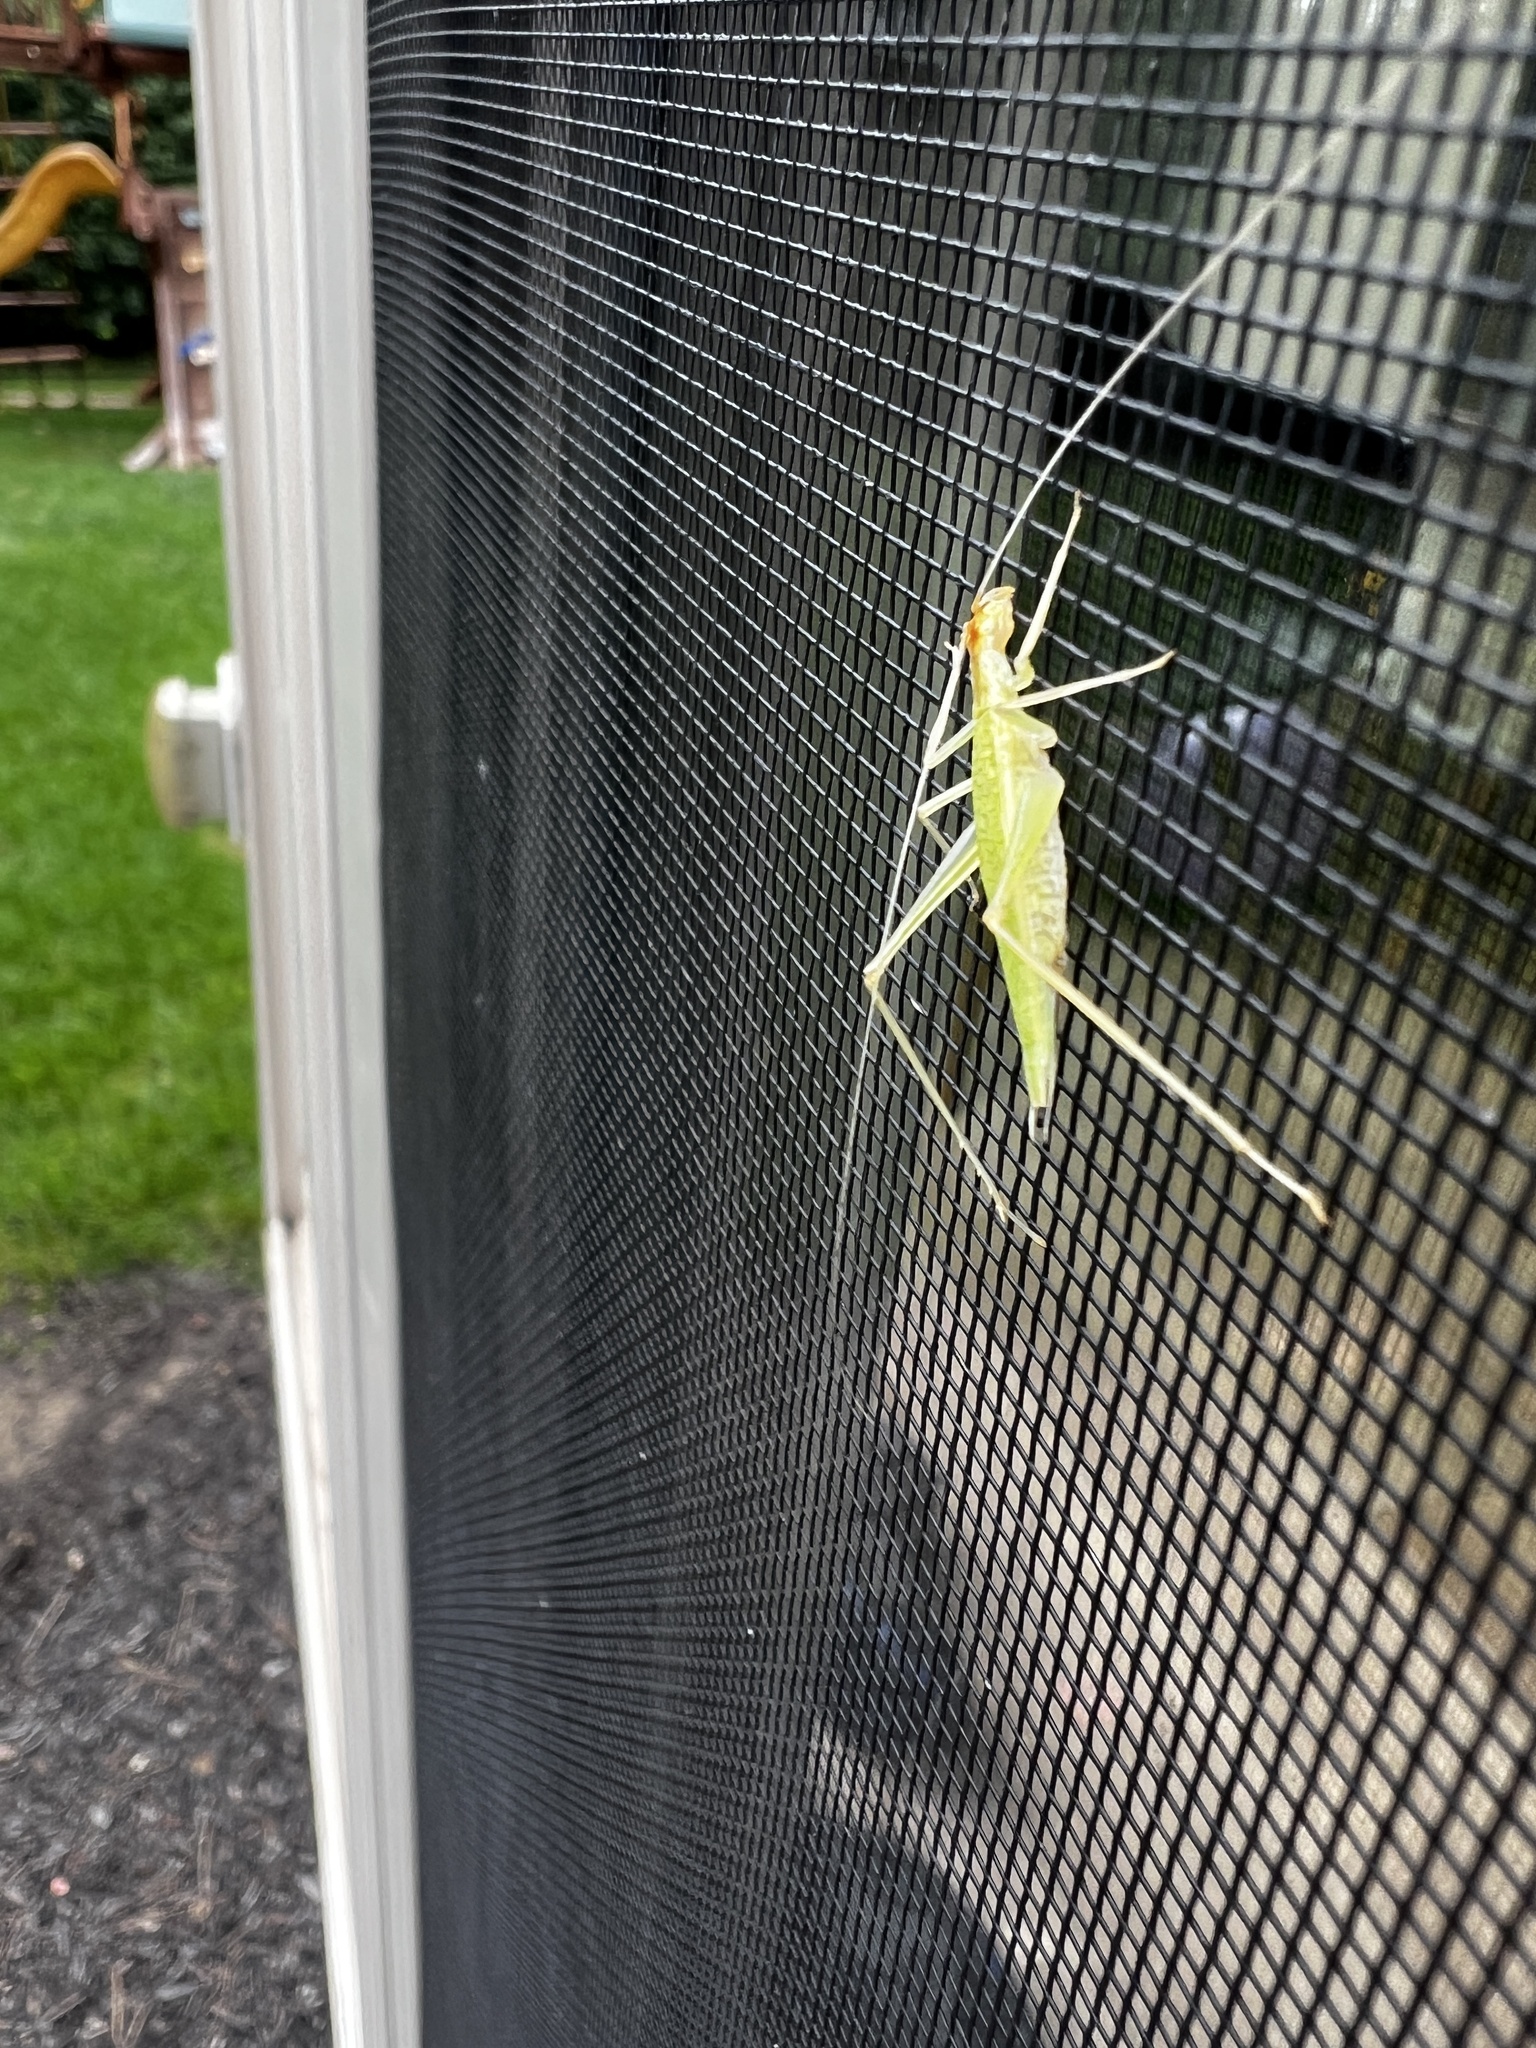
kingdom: Animalia
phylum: Arthropoda
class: Insecta
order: Orthoptera
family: Gryllidae
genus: Oecanthus
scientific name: Oecanthus niveus
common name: Narrow-winged tree cricket
